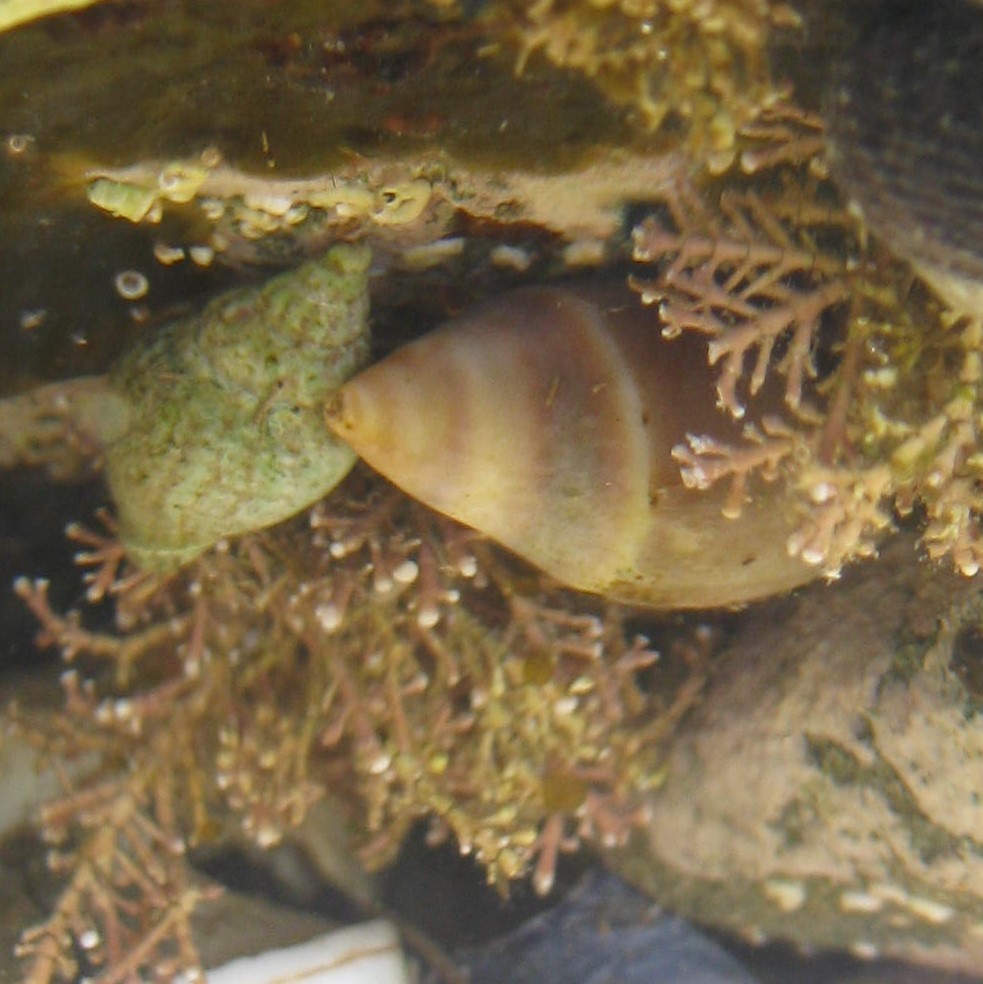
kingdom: Animalia
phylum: Mollusca
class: Gastropoda
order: Neogastropoda
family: Ancillariidae
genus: Amalda
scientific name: Amalda australis
